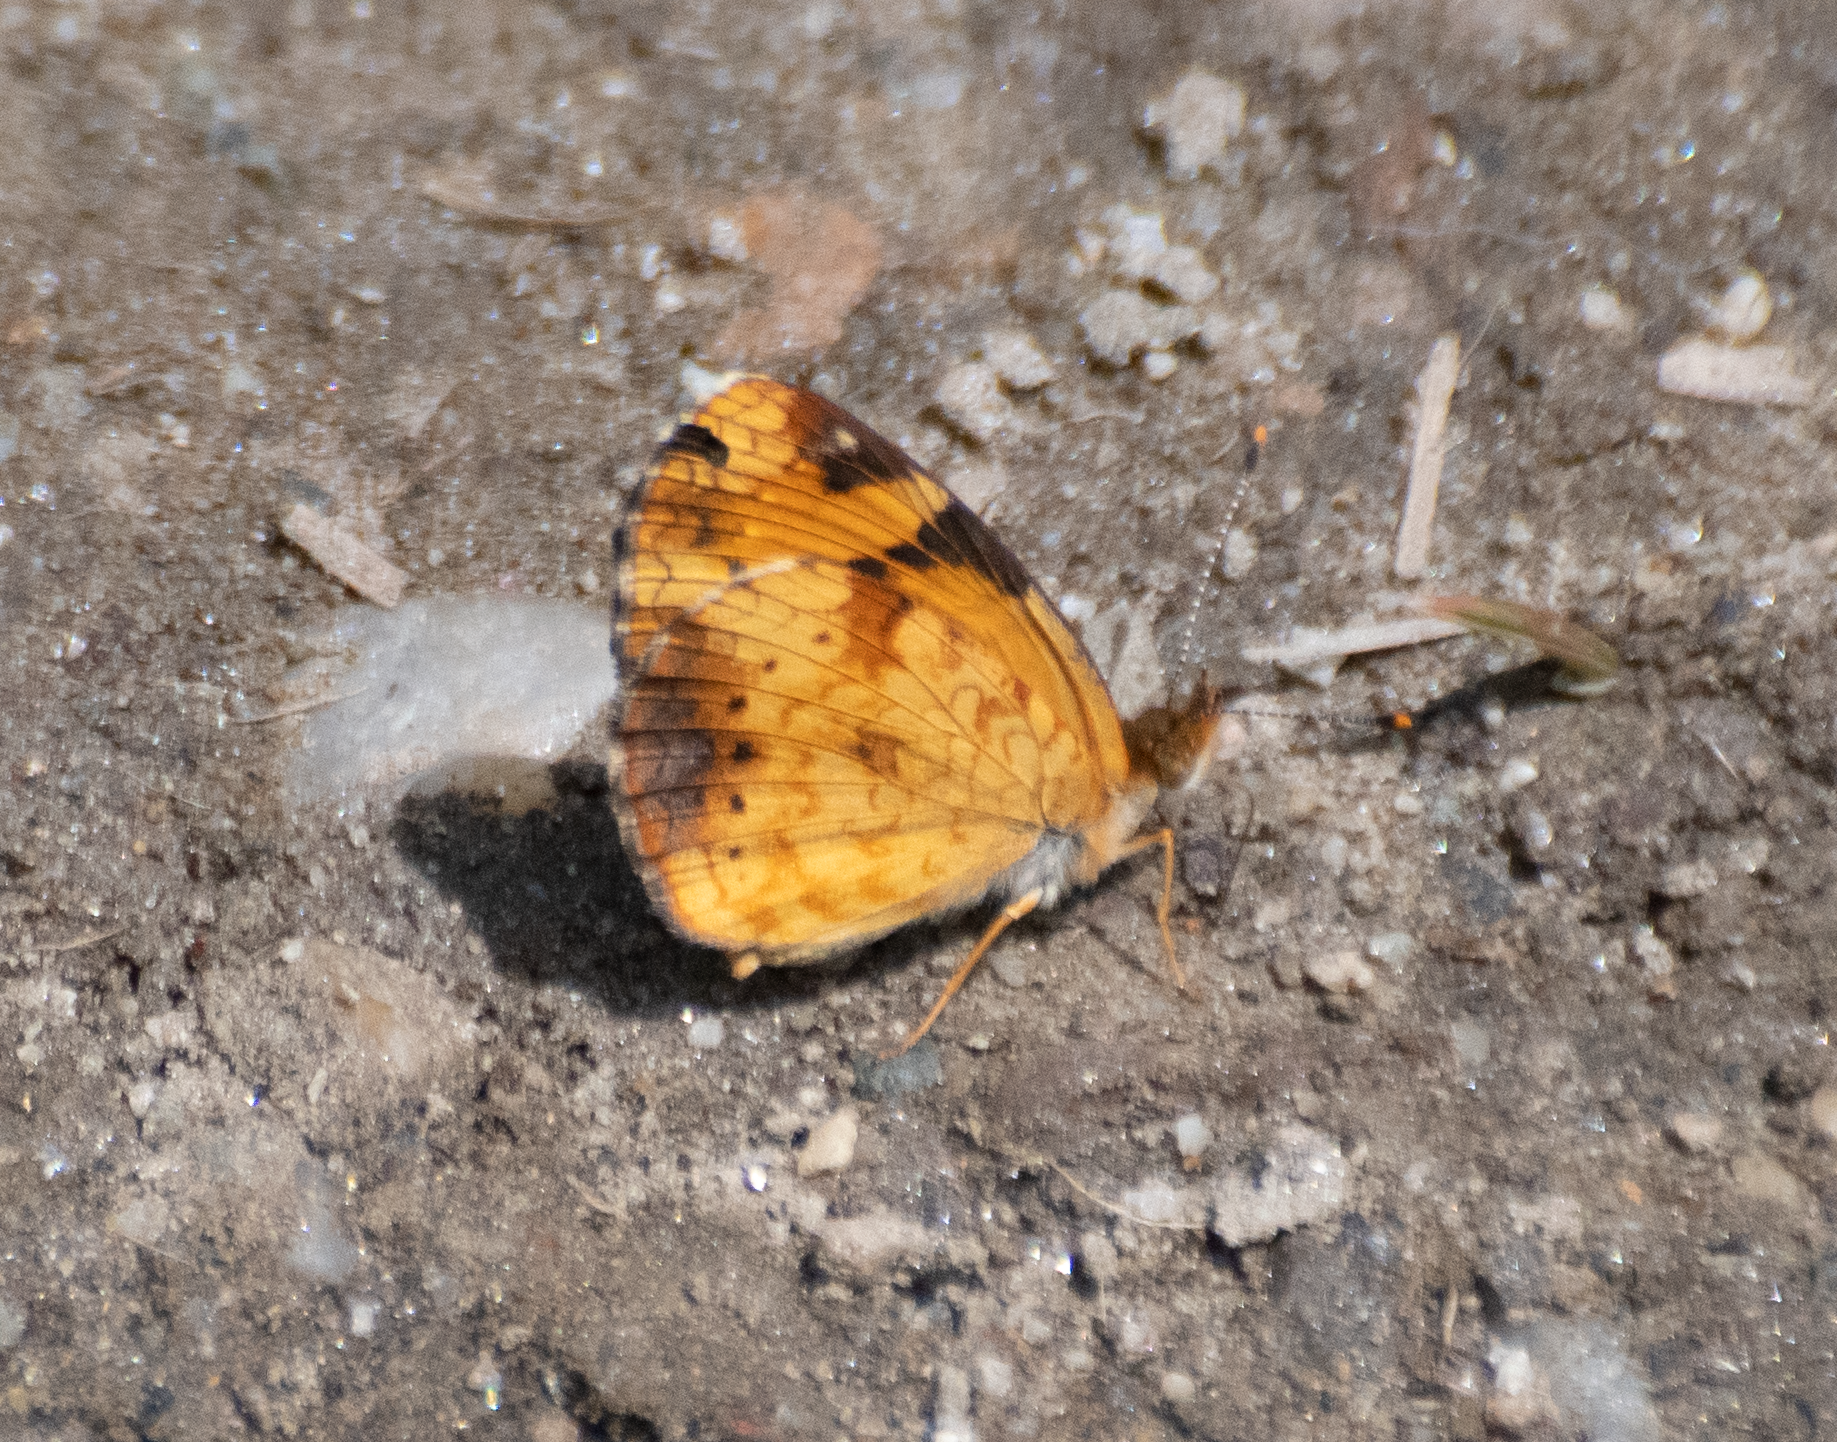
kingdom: Animalia
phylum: Arthropoda
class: Insecta
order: Lepidoptera
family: Nymphalidae
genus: Phyciodes
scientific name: Phyciodes tharos
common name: Pearl crescent
